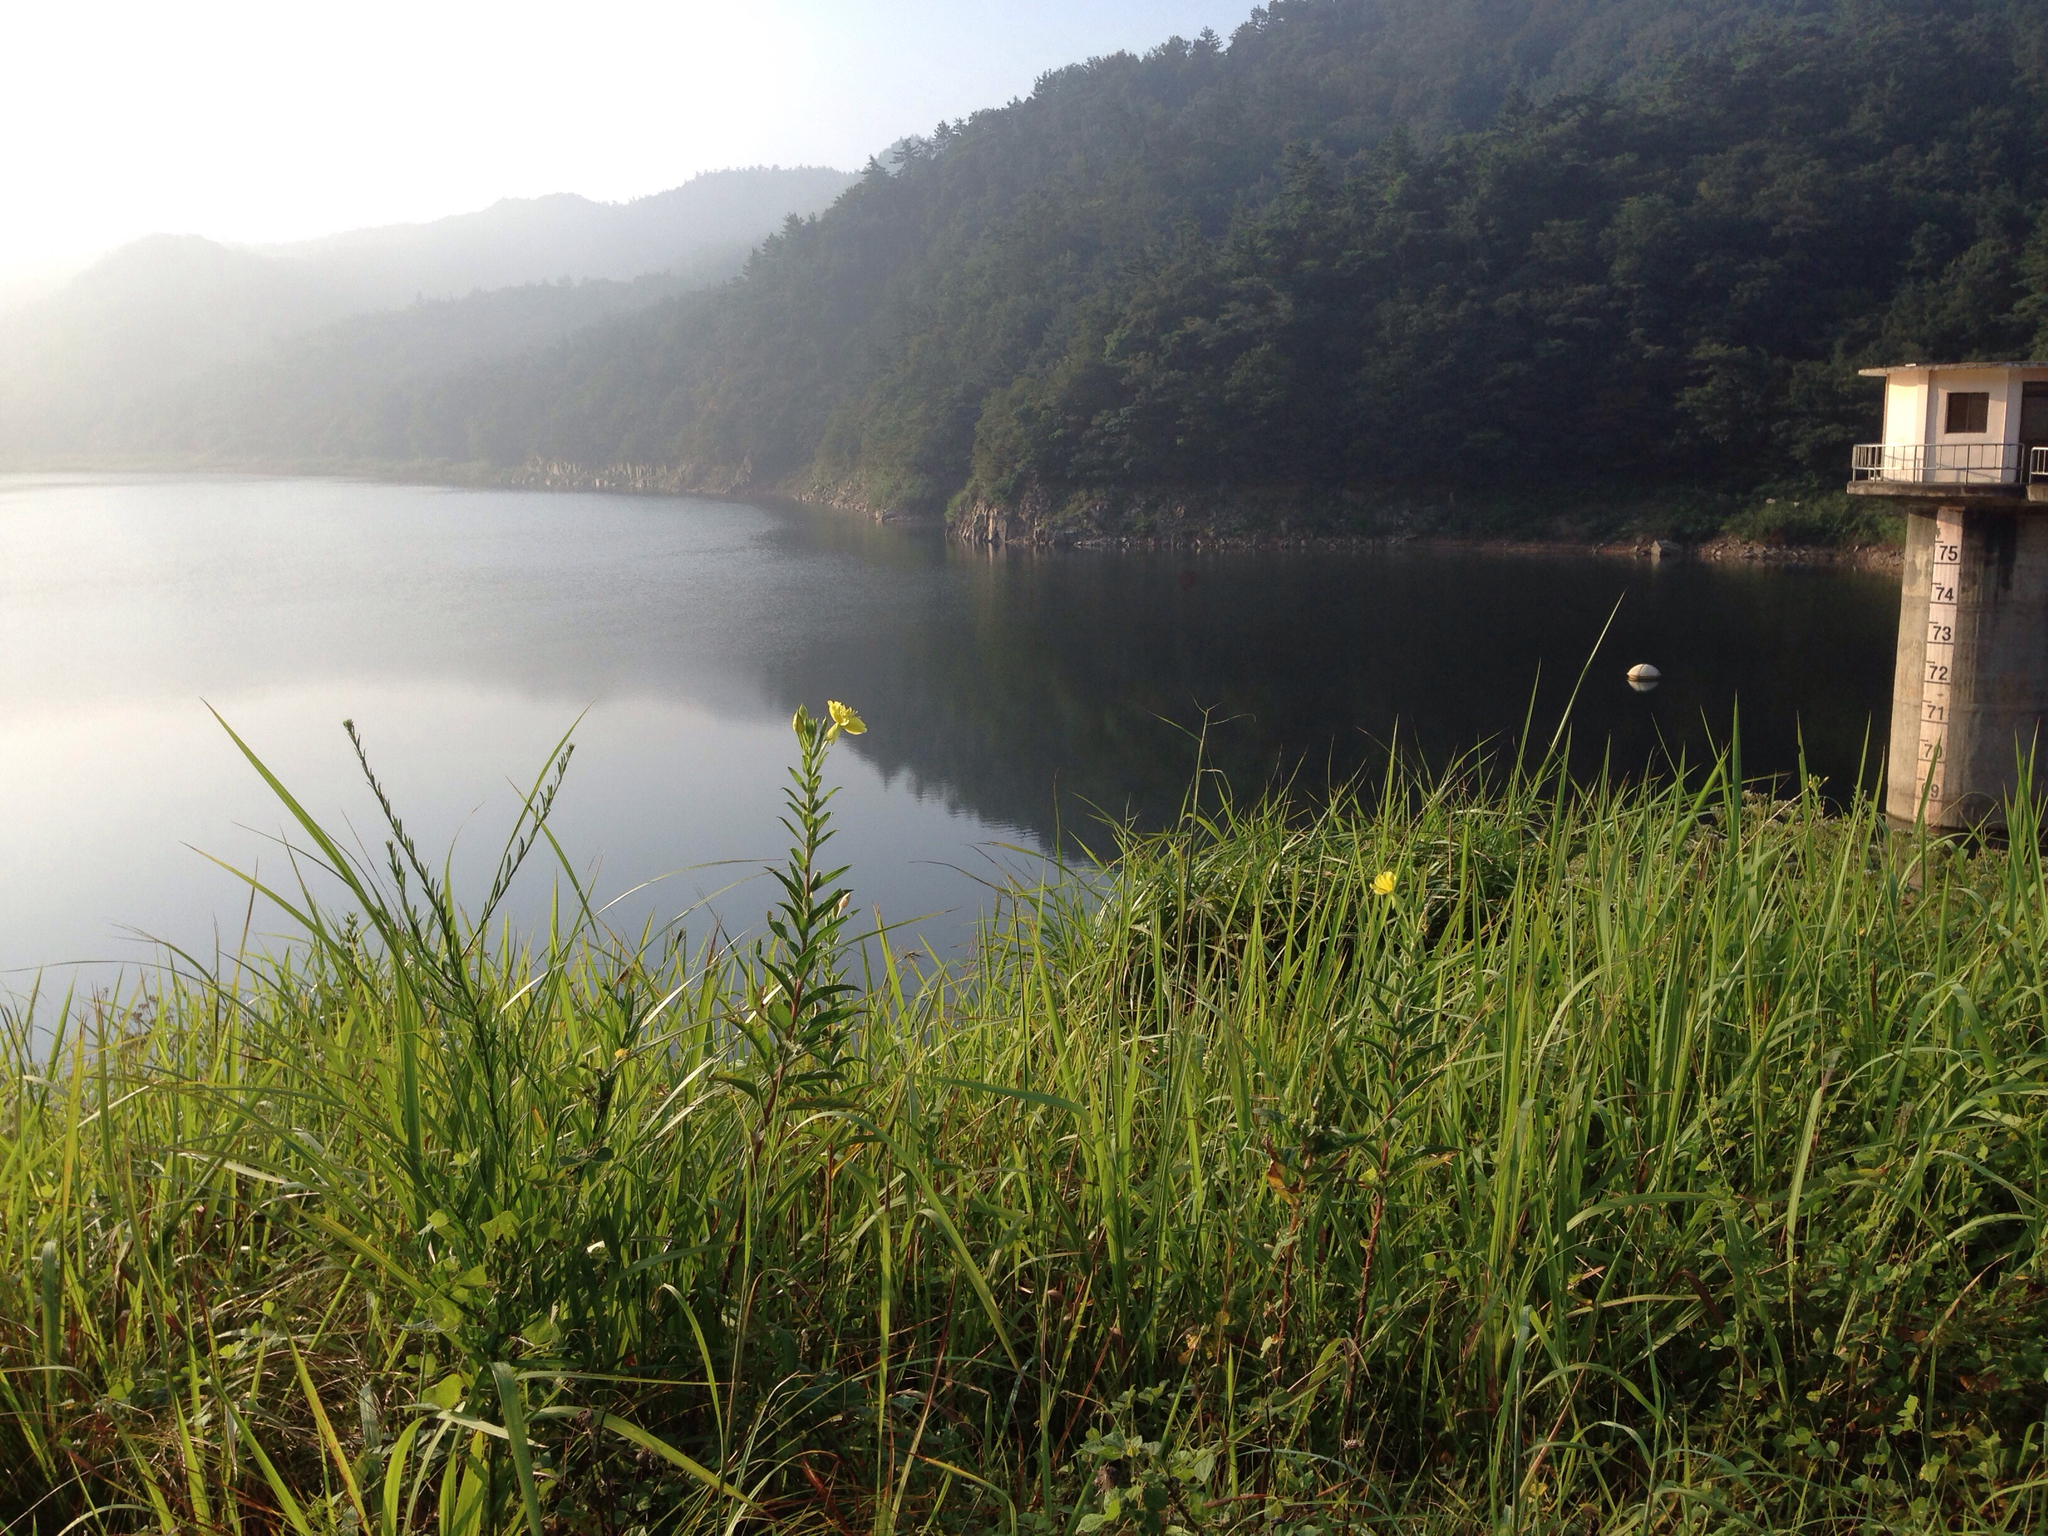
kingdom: Plantae
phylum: Tracheophyta
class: Magnoliopsida
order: Myrtales
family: Onagraceae
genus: Oenothera
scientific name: Oenothera biennis
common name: Common evening-primrose
